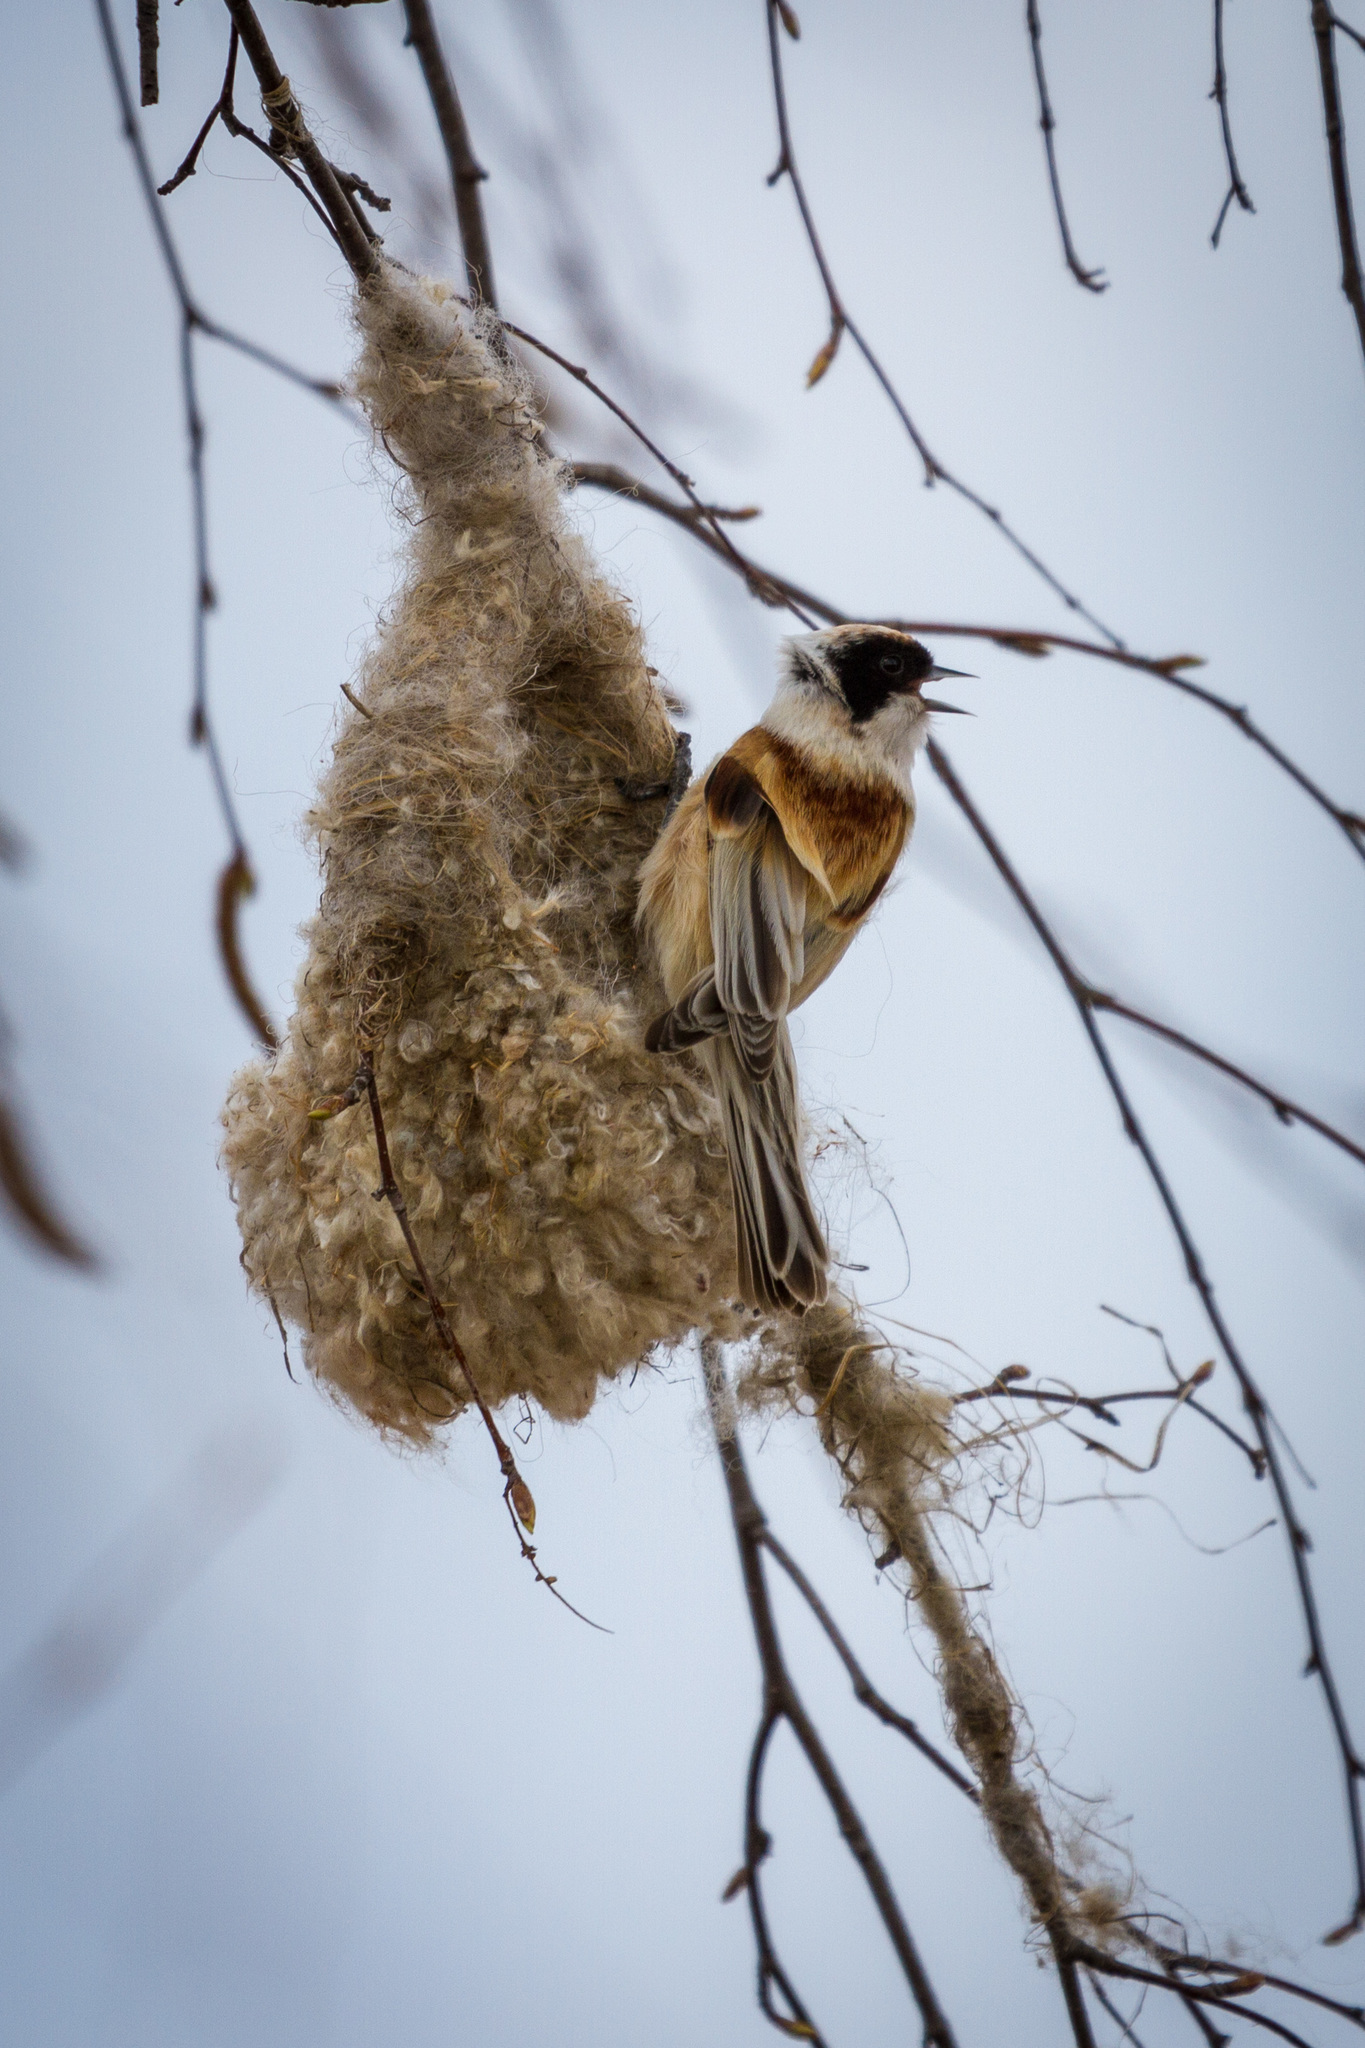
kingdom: Animalia
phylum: Chordata
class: Aves
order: Passeriformes
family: Remizidae
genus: Remiz
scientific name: Remiz pendulinus
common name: Eurasian penduline tit
